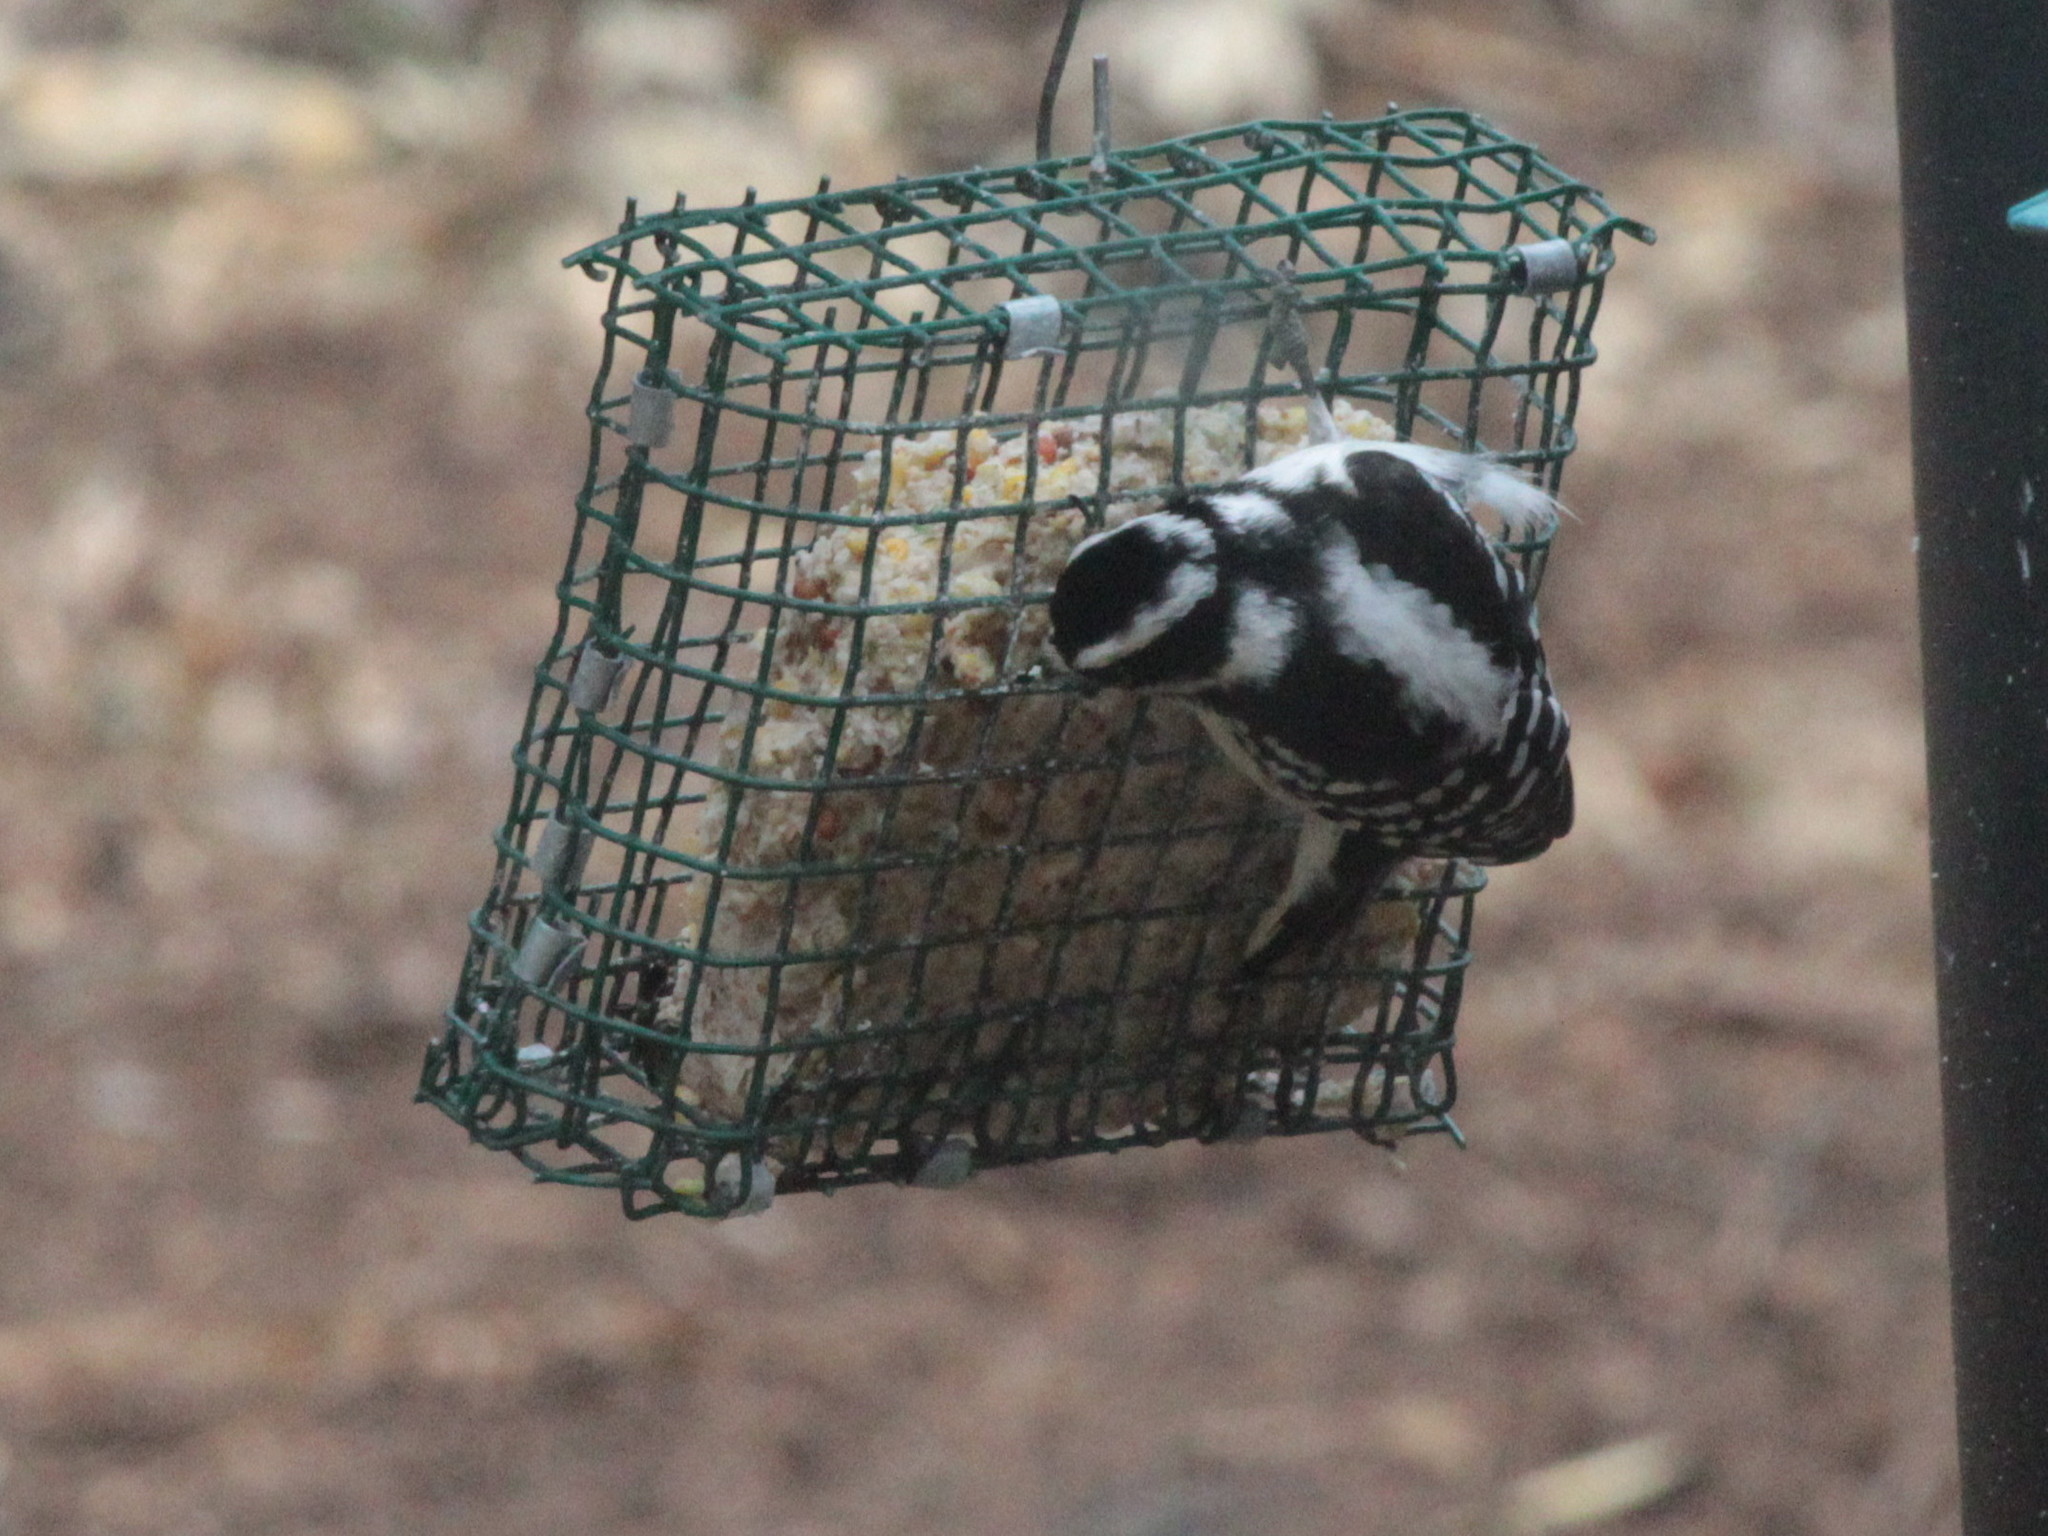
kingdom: Animalia
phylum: Chordata
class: Aves
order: Piciformes
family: Picidae
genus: Dryobates
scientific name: Dryobates pubescens
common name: Downy woodpecker
